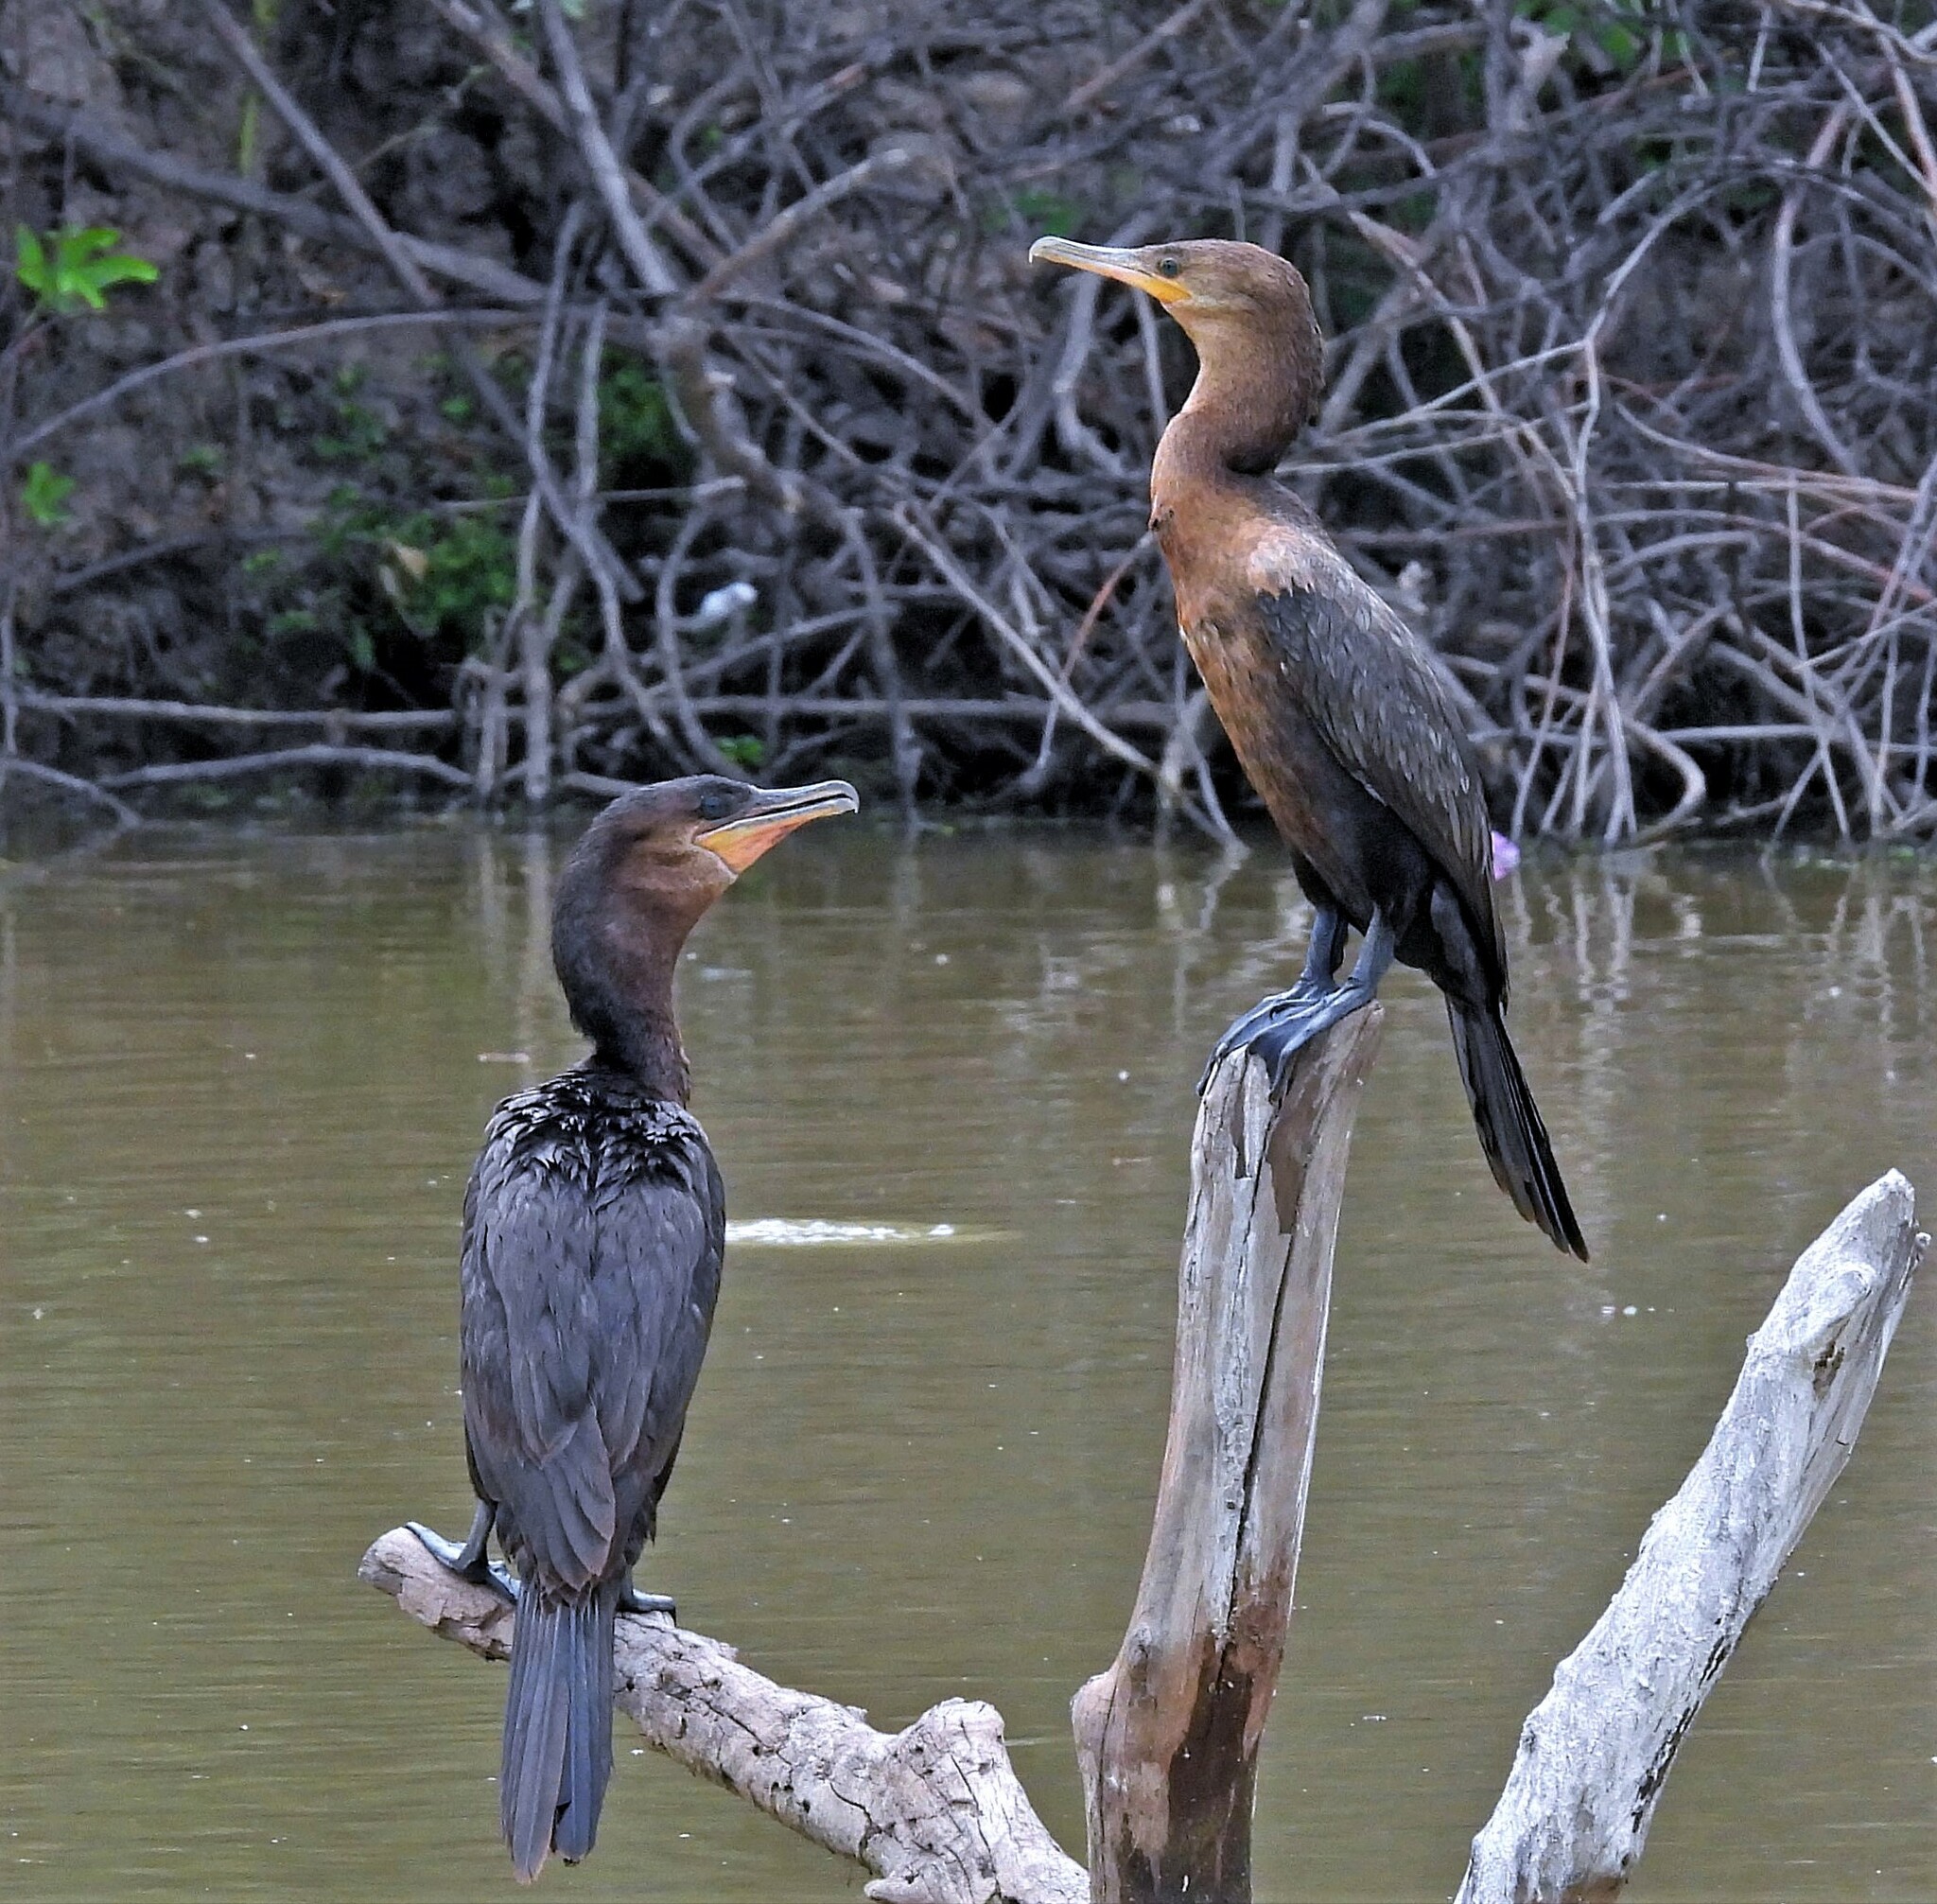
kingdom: Animalia
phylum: Chordata
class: Aves
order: Suliformes
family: Phalacrocoracidae
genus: Phalacrocorax
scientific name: Phalacrocorax brasilianus
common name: Neotropic cormorant
